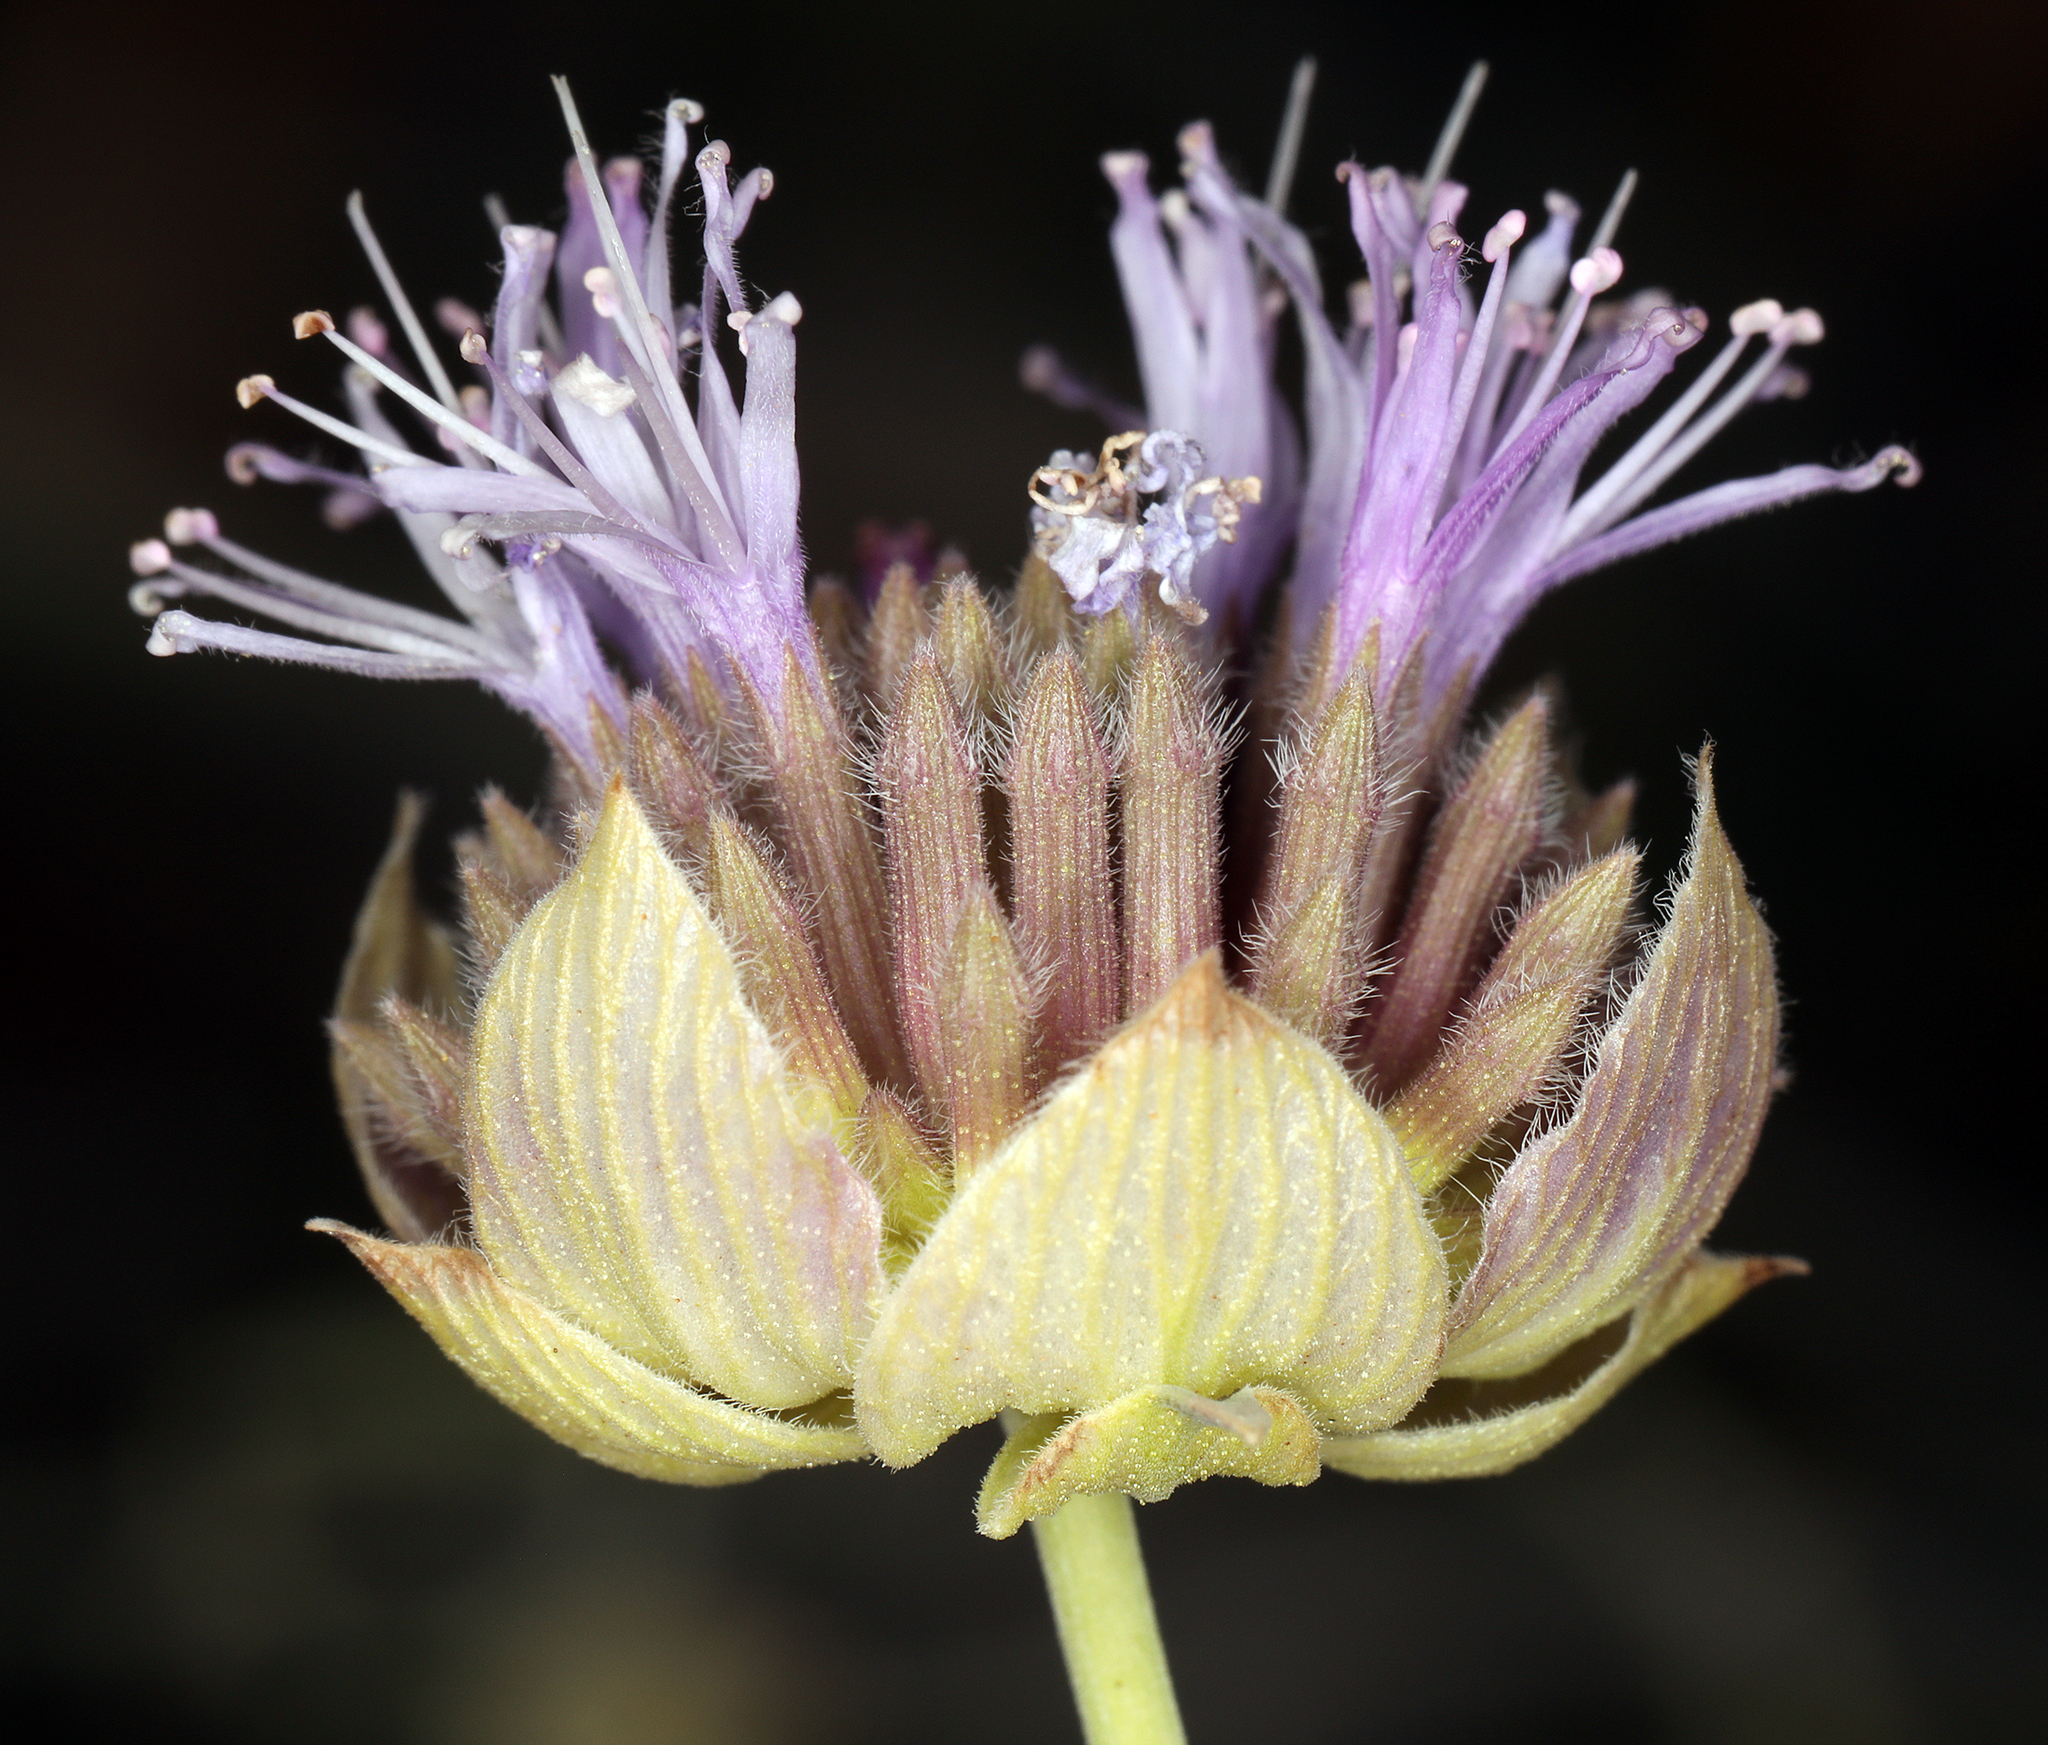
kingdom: Plantae
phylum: Tracheophyta
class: Magnoliopsida
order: Lamiales
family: Lamiaceae
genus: Monardella
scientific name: Monardella linoides
